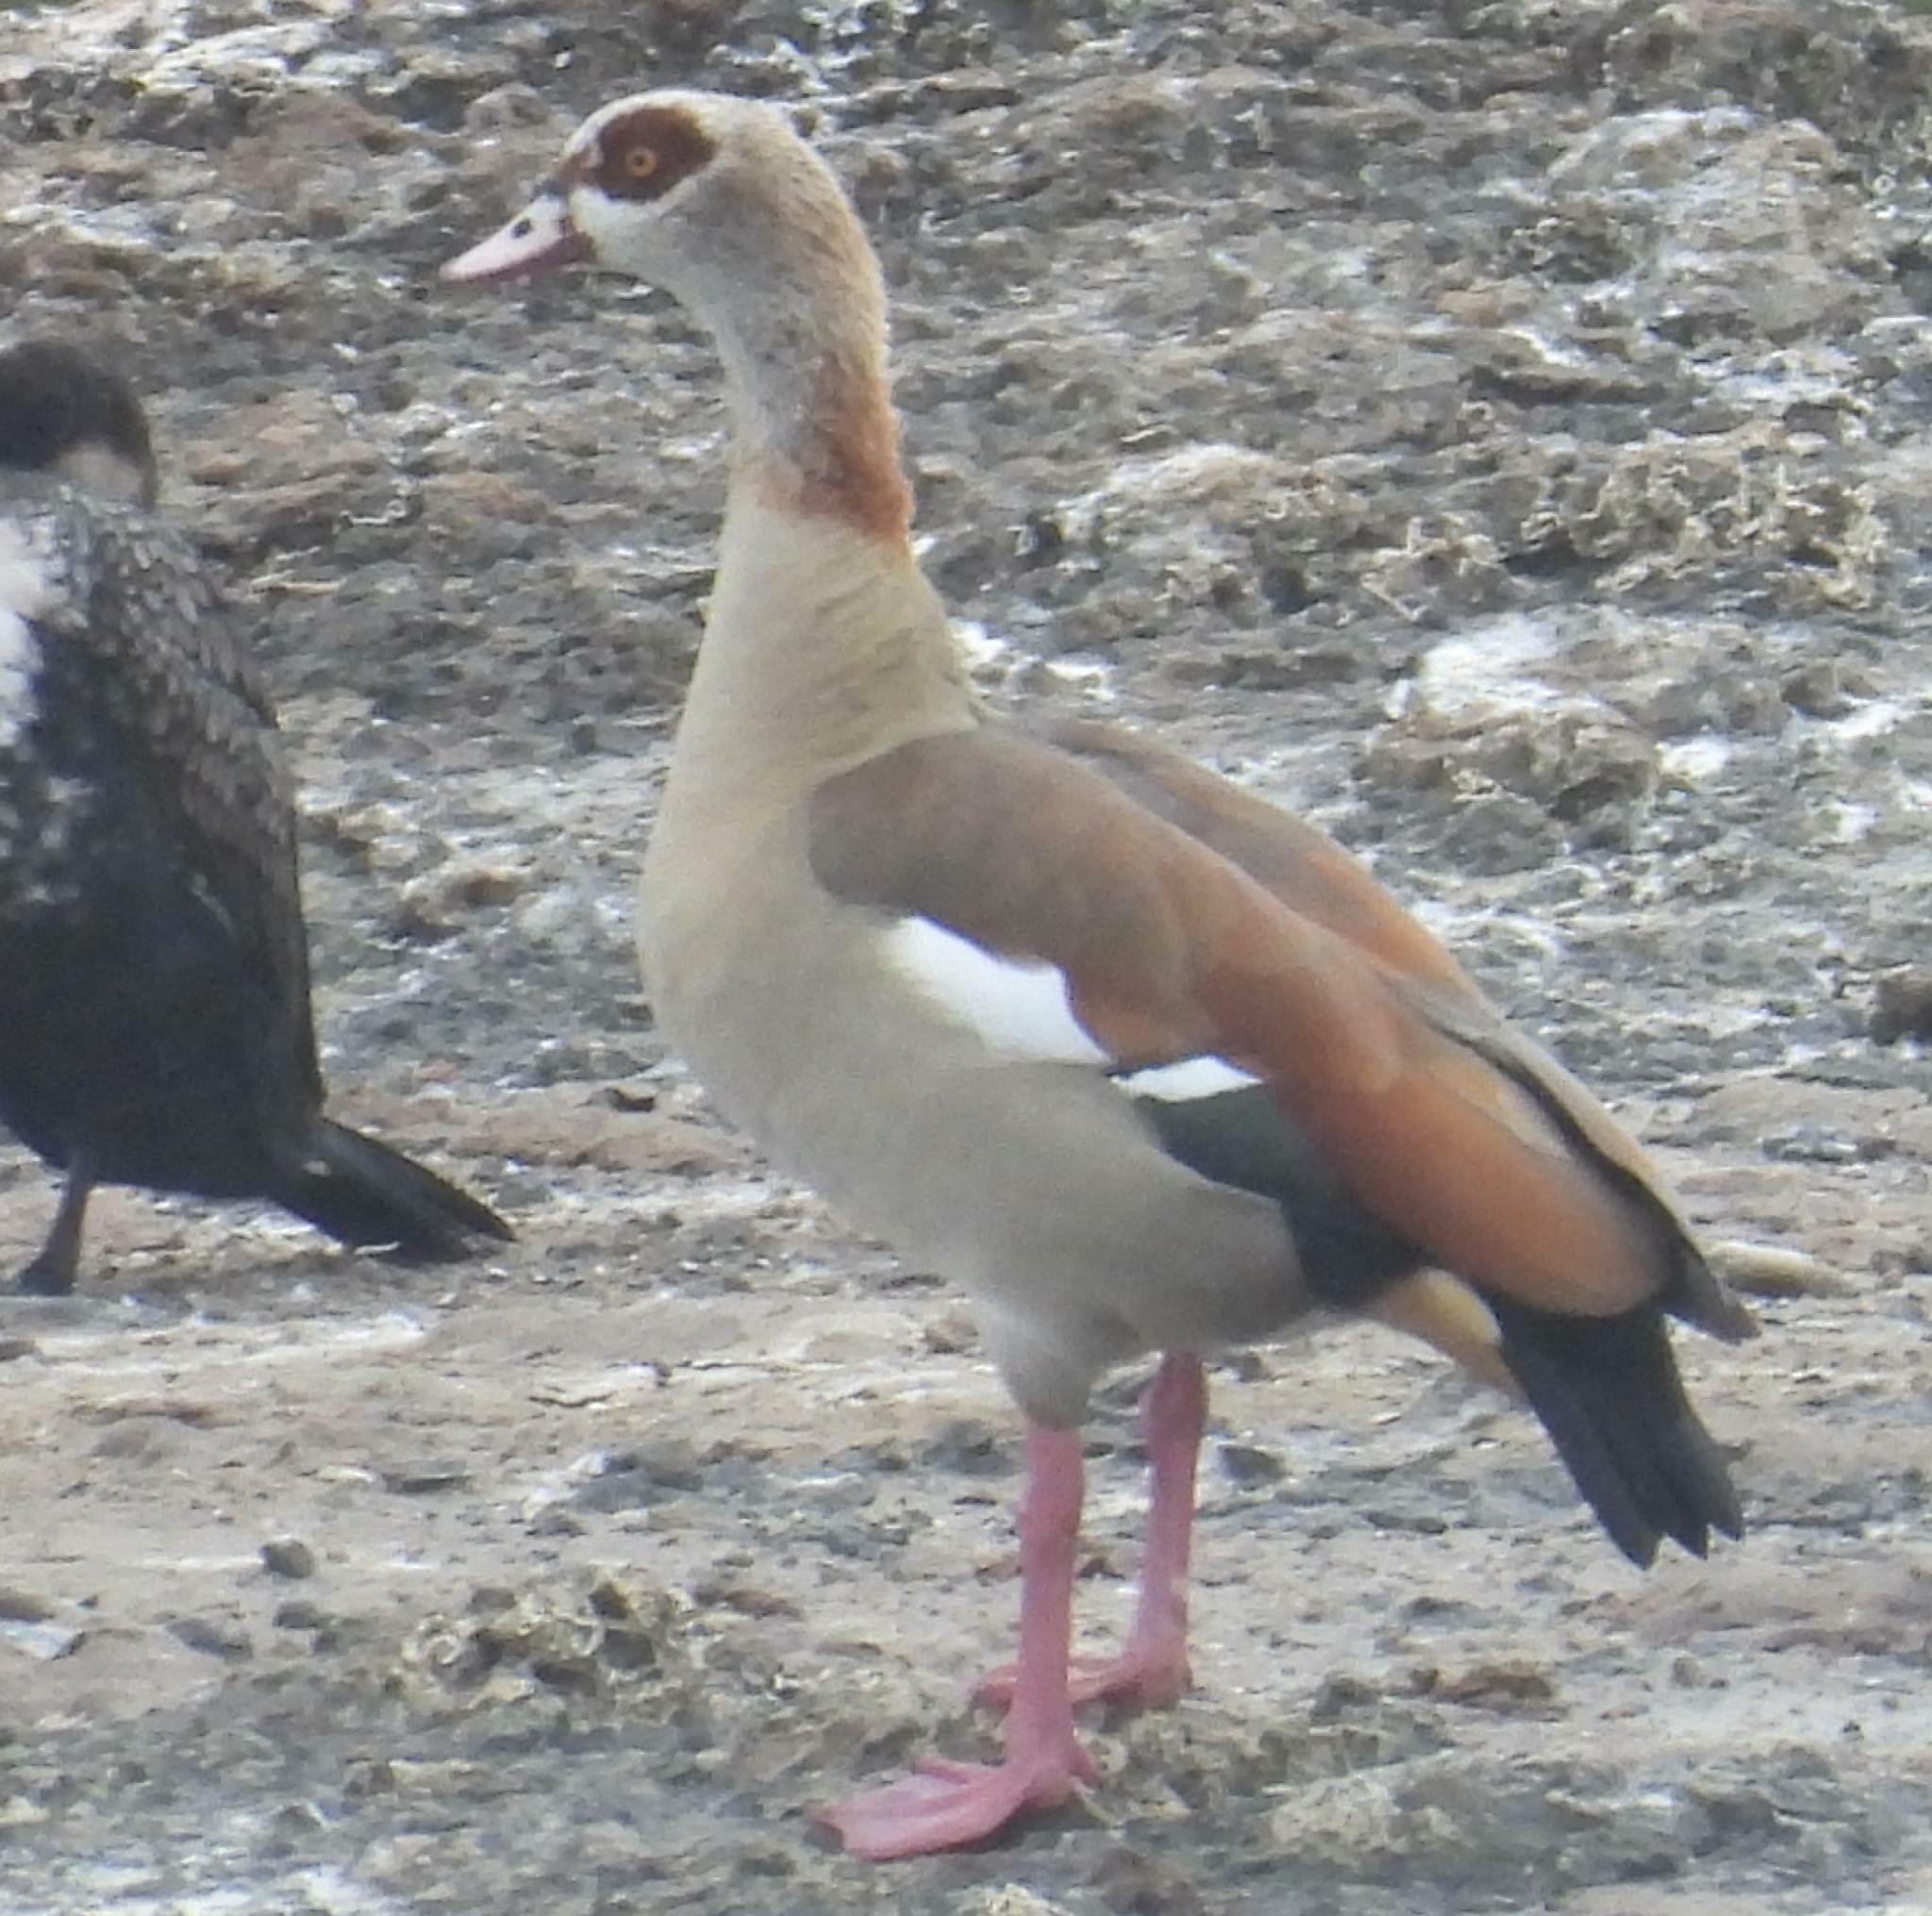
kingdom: Animalia
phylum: Chordata
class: Aves
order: Anseriformes
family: Anatidae
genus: Alopochen
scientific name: Alopochen aegyptiaca
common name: Egyptian goose
